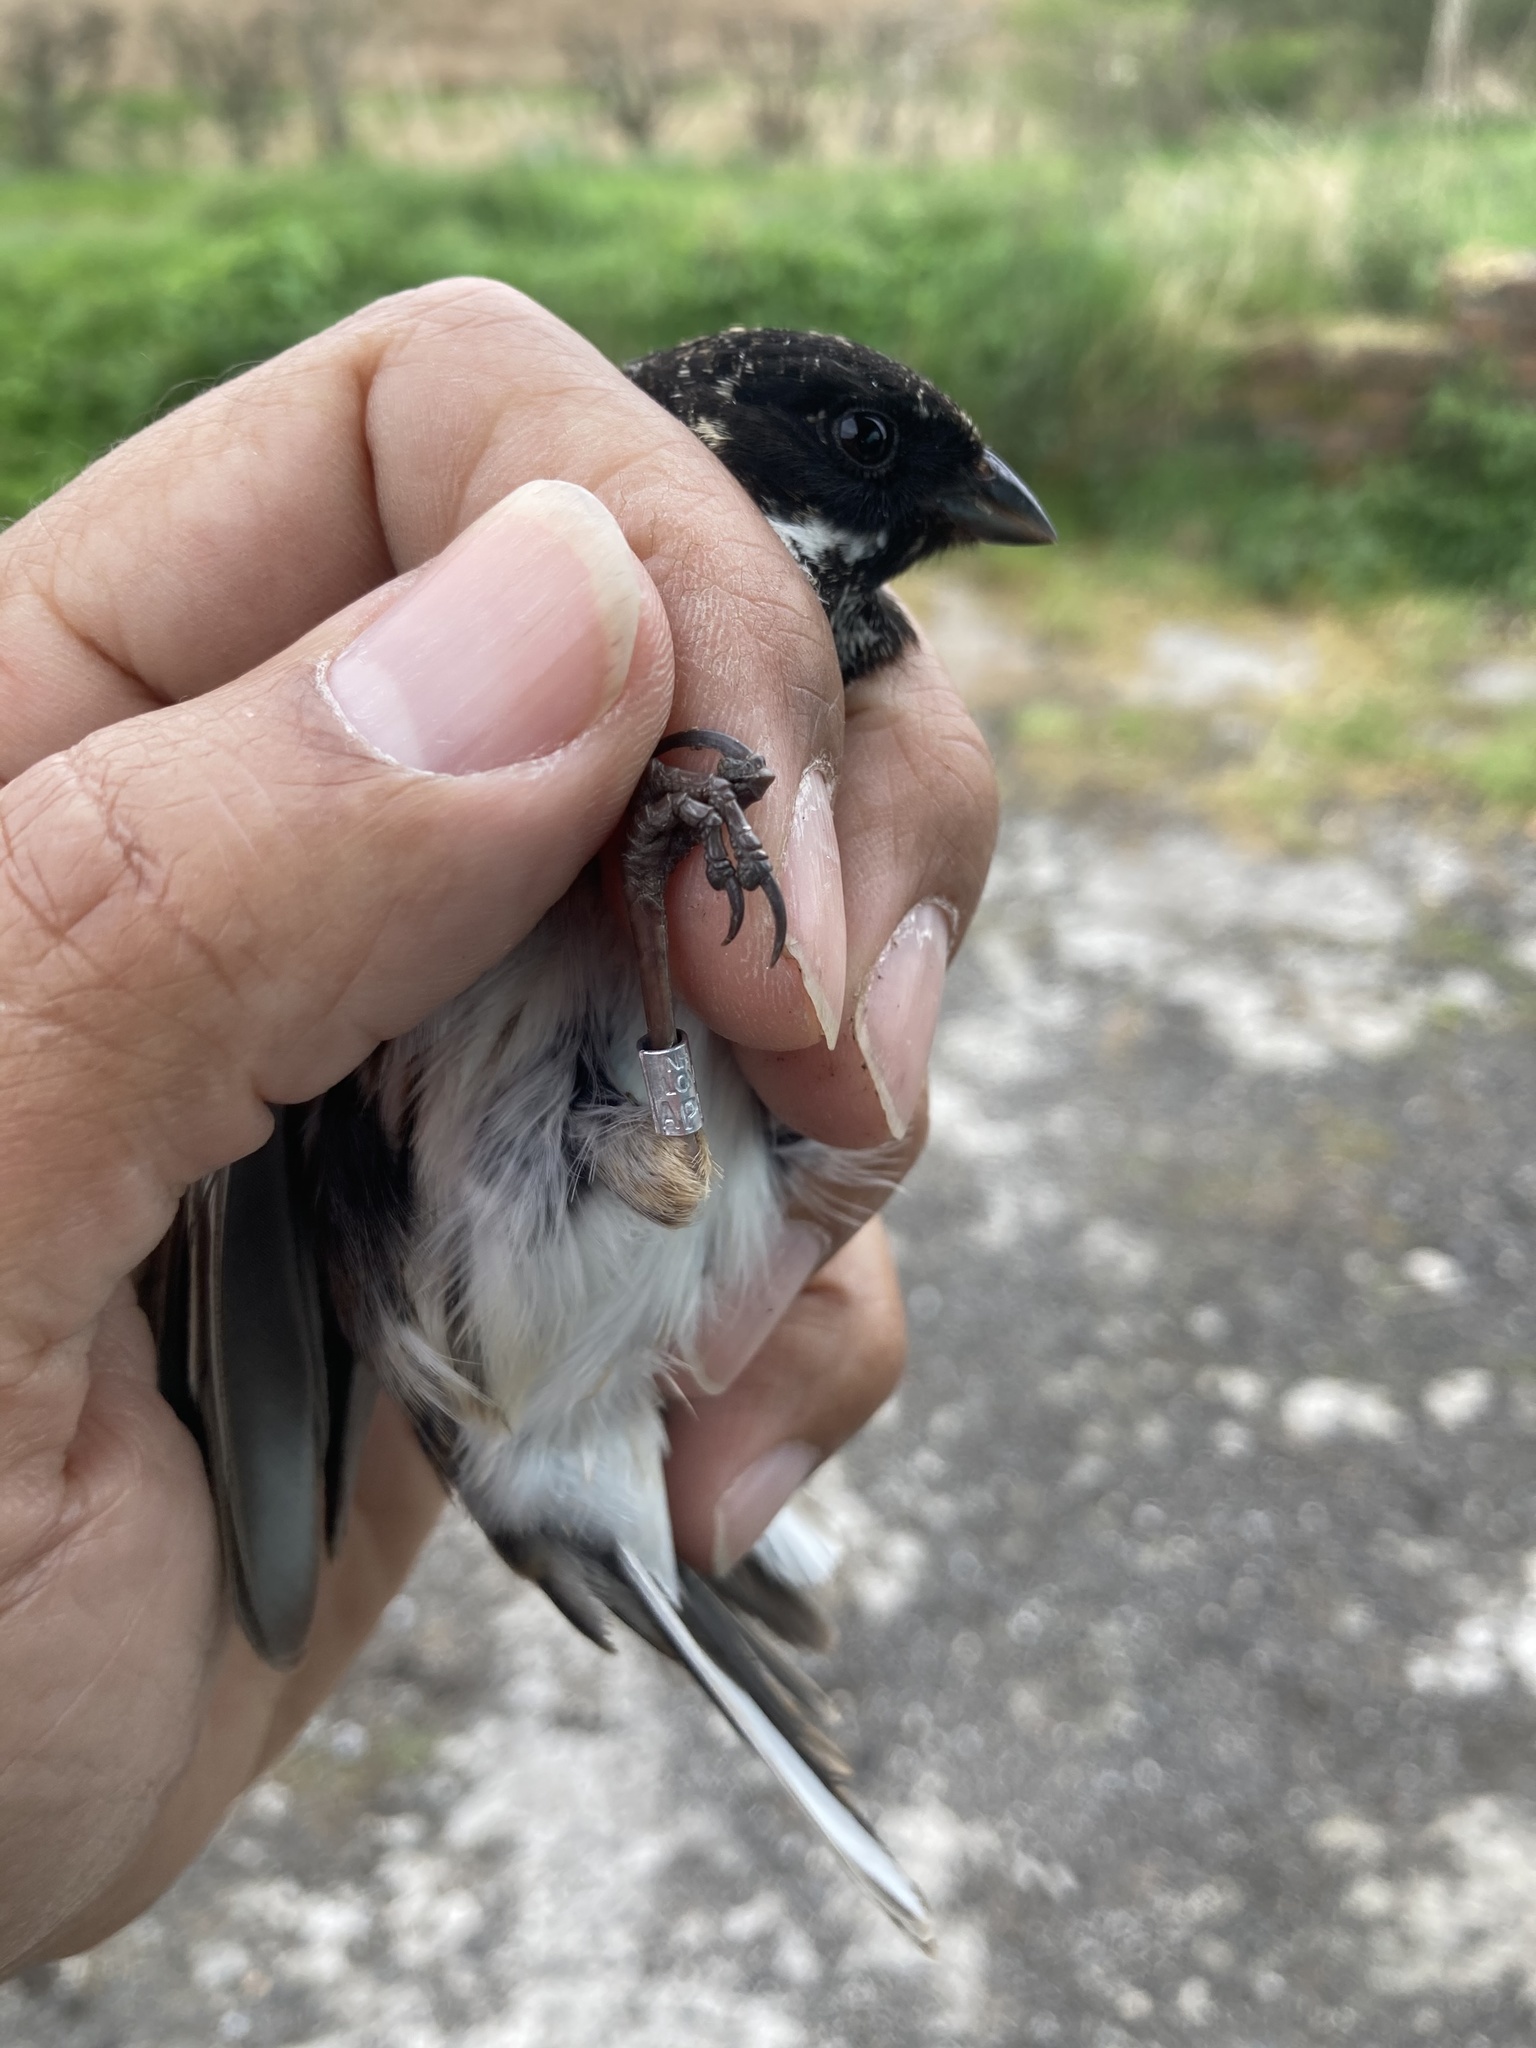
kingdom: Animalia
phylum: Chordata
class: Aves
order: Passeriformes
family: Emberizidae
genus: Emberiza
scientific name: Emberiza schoeniclus
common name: Reed bunting
